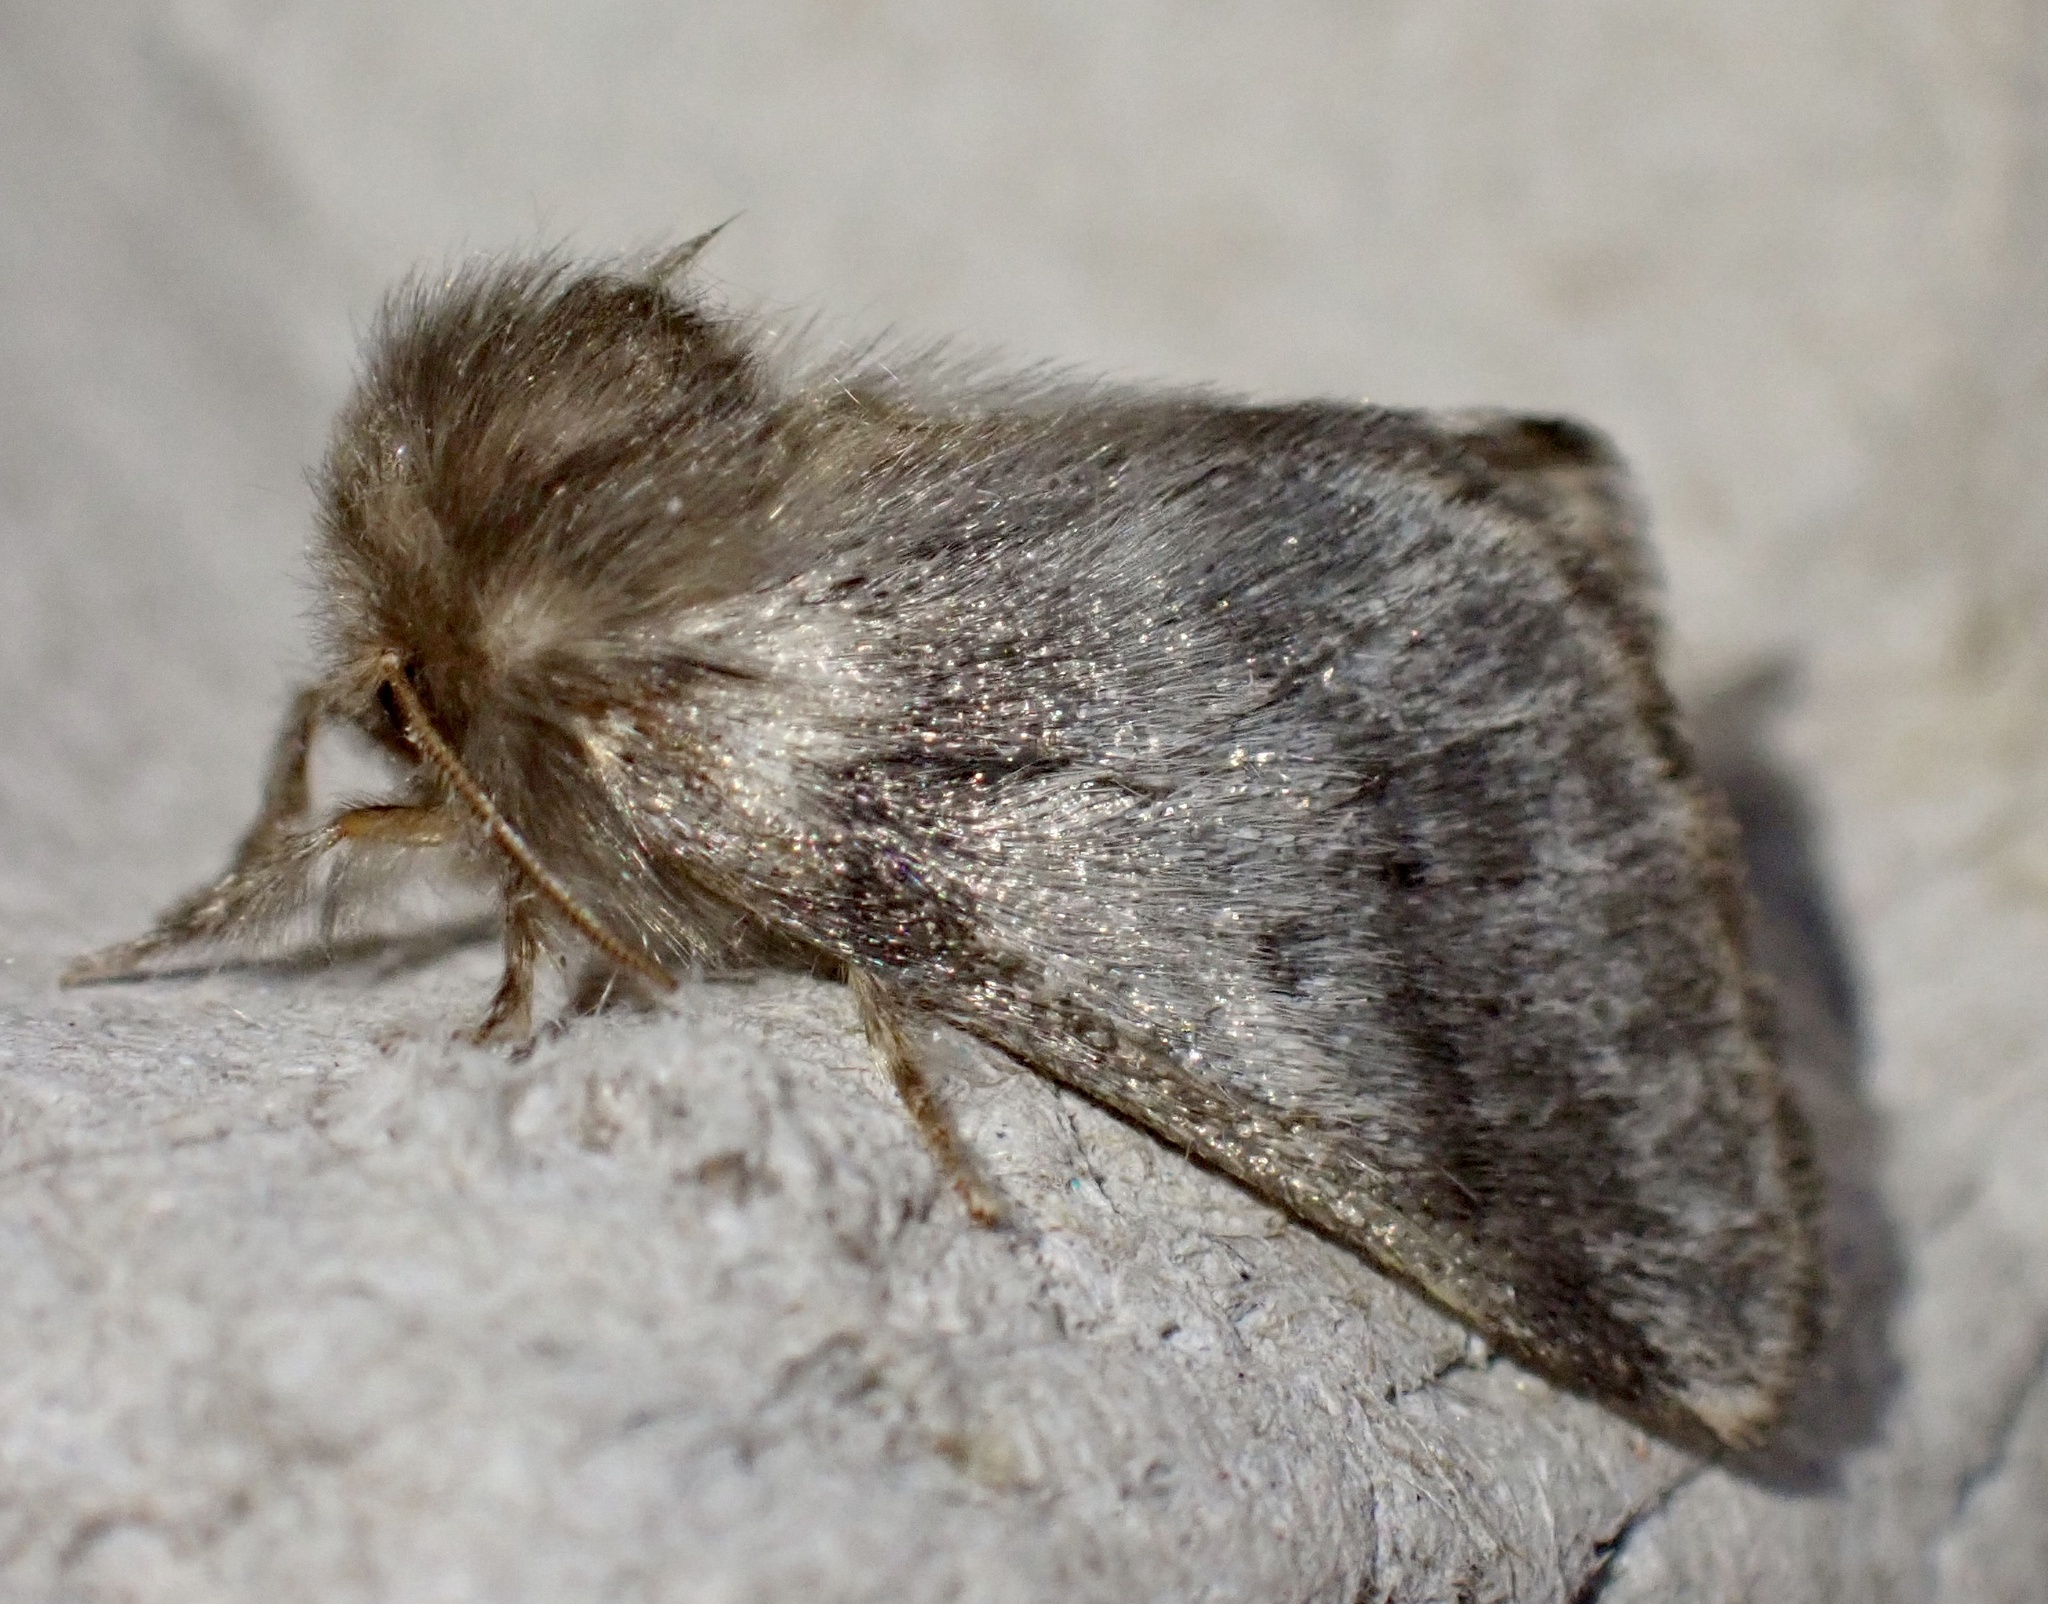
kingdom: Animalia
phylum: Arthropoda
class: Insecta
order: Lepidoptera
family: Notodontidae
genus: Thaumetopoea
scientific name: Thaumetopoea processionea
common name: Oak processionea
